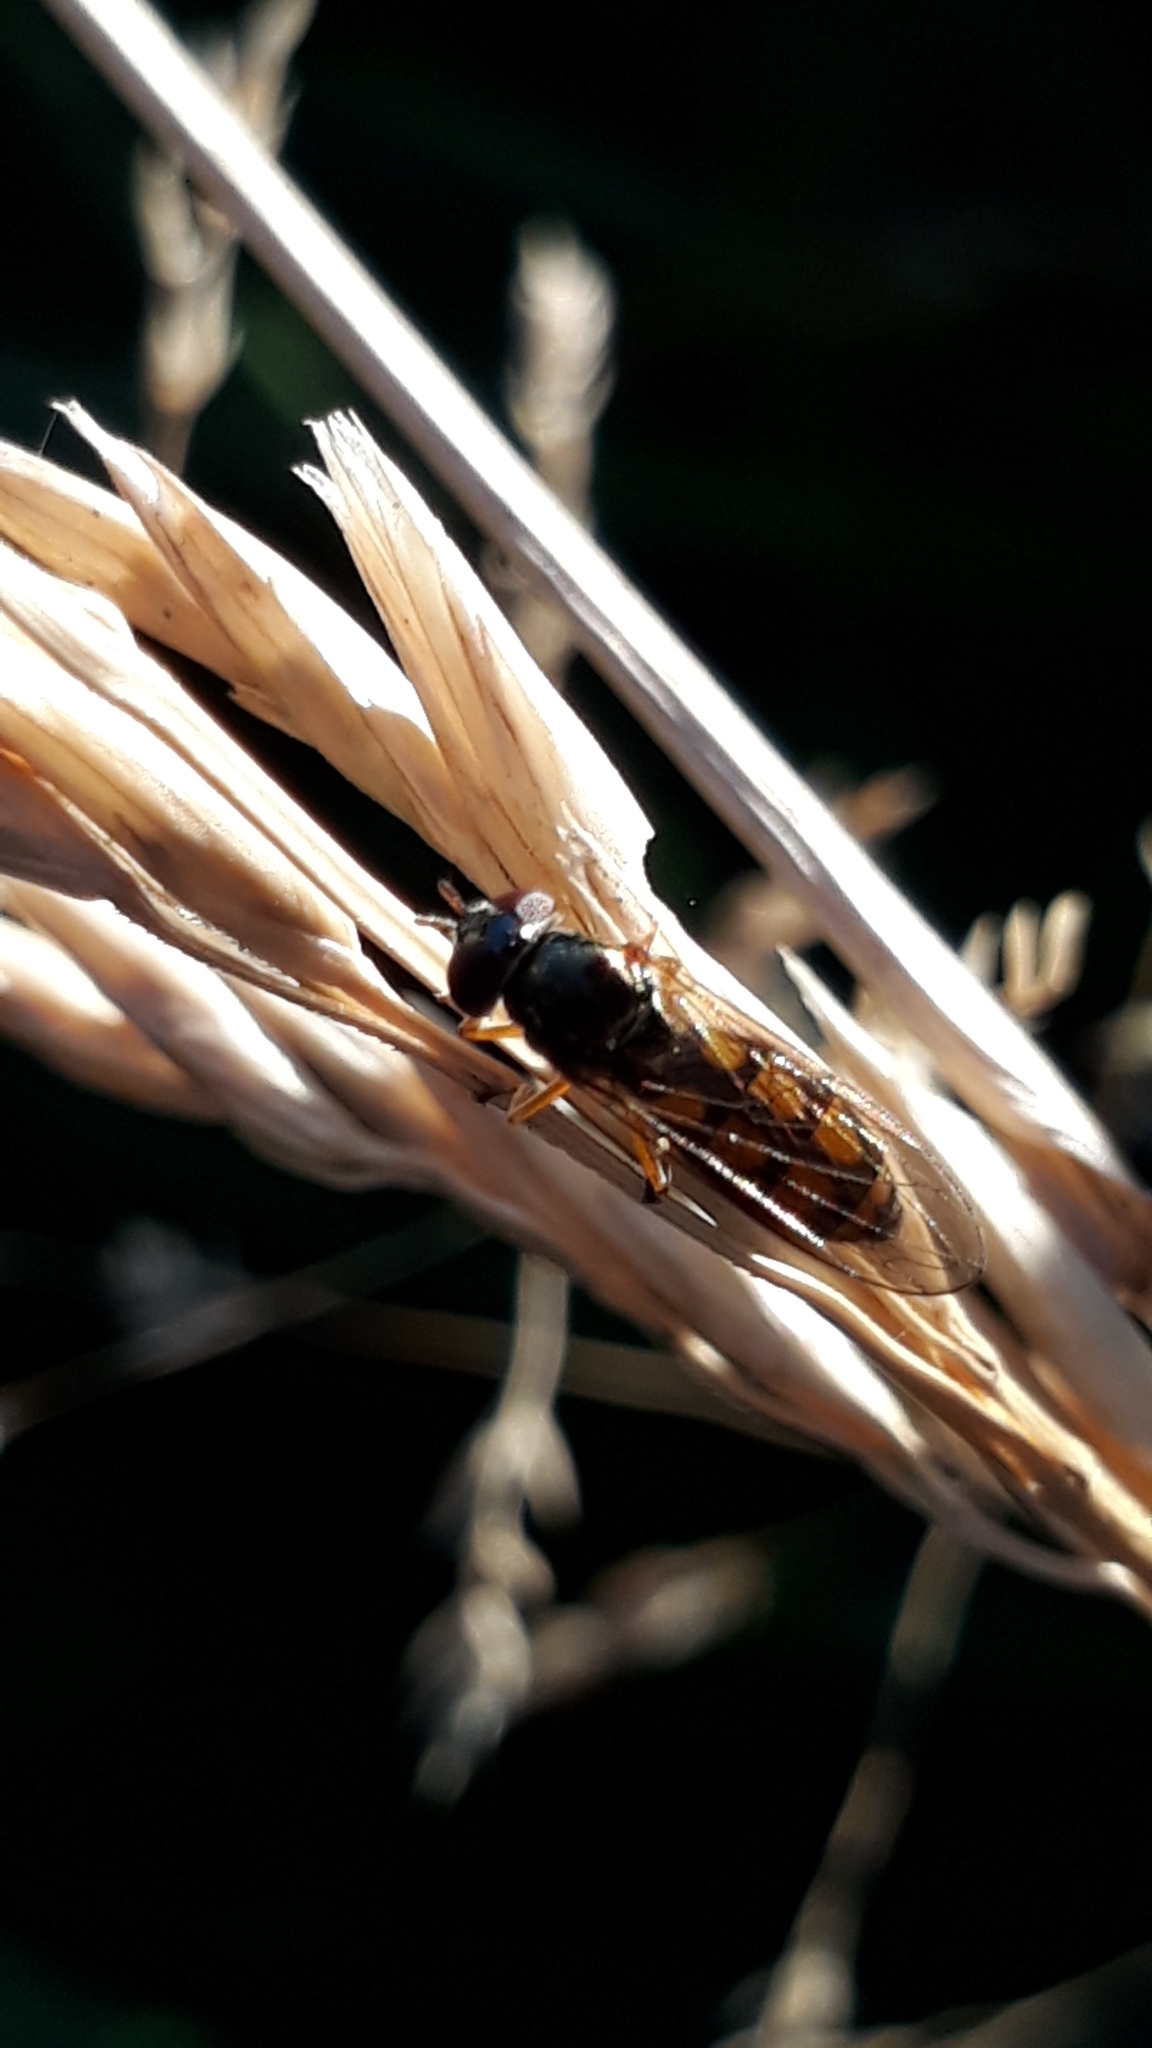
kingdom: Animalia
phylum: Arthropoda
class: Insecta
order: Diptera
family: Syrphidae
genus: Melanostoma
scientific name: Melanostoma fasciatum
